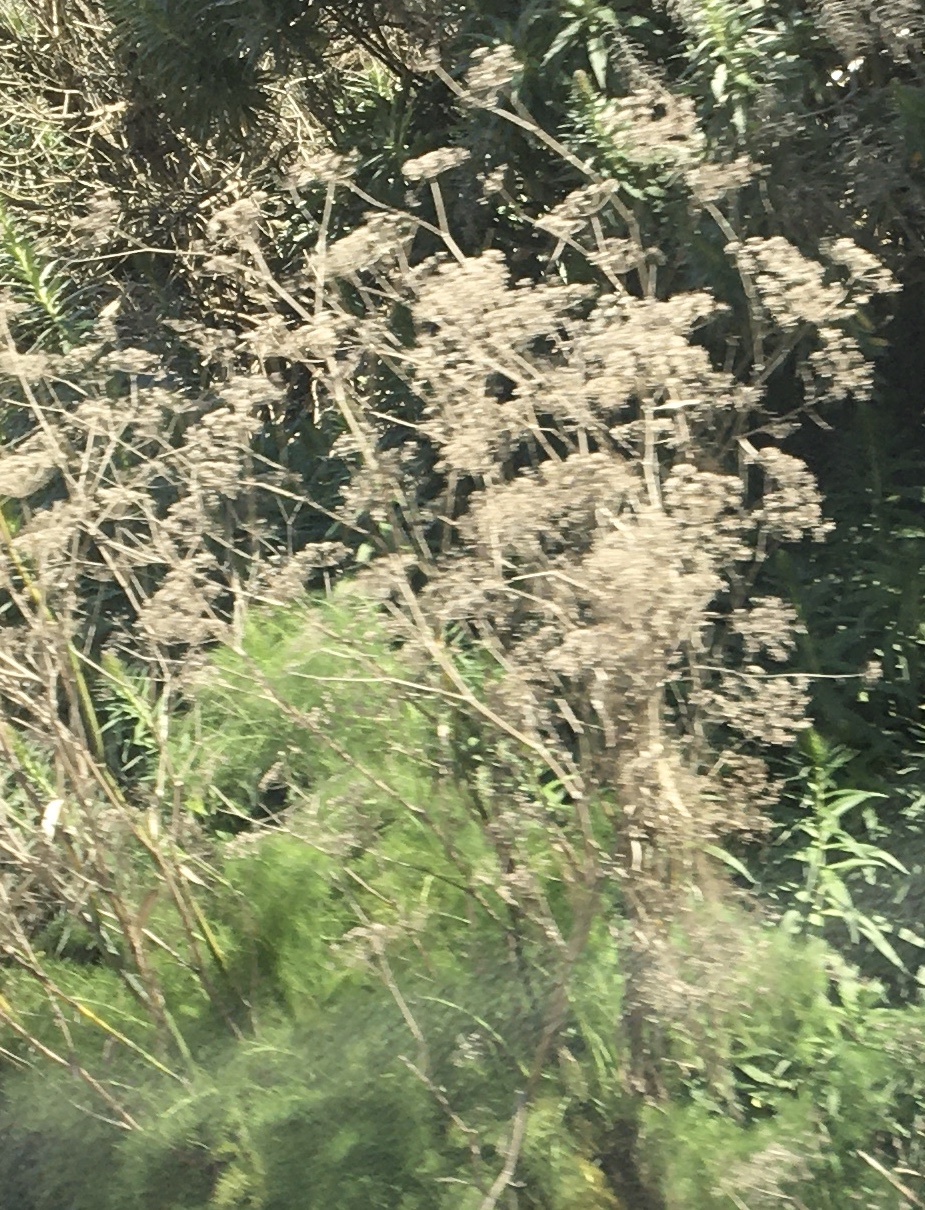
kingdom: Plantae
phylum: Tracheophyta
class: Magnoliopsida
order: Apiales
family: Apiaceae
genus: Foeniculum
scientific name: Foeniculum vulgare
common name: Fennel
